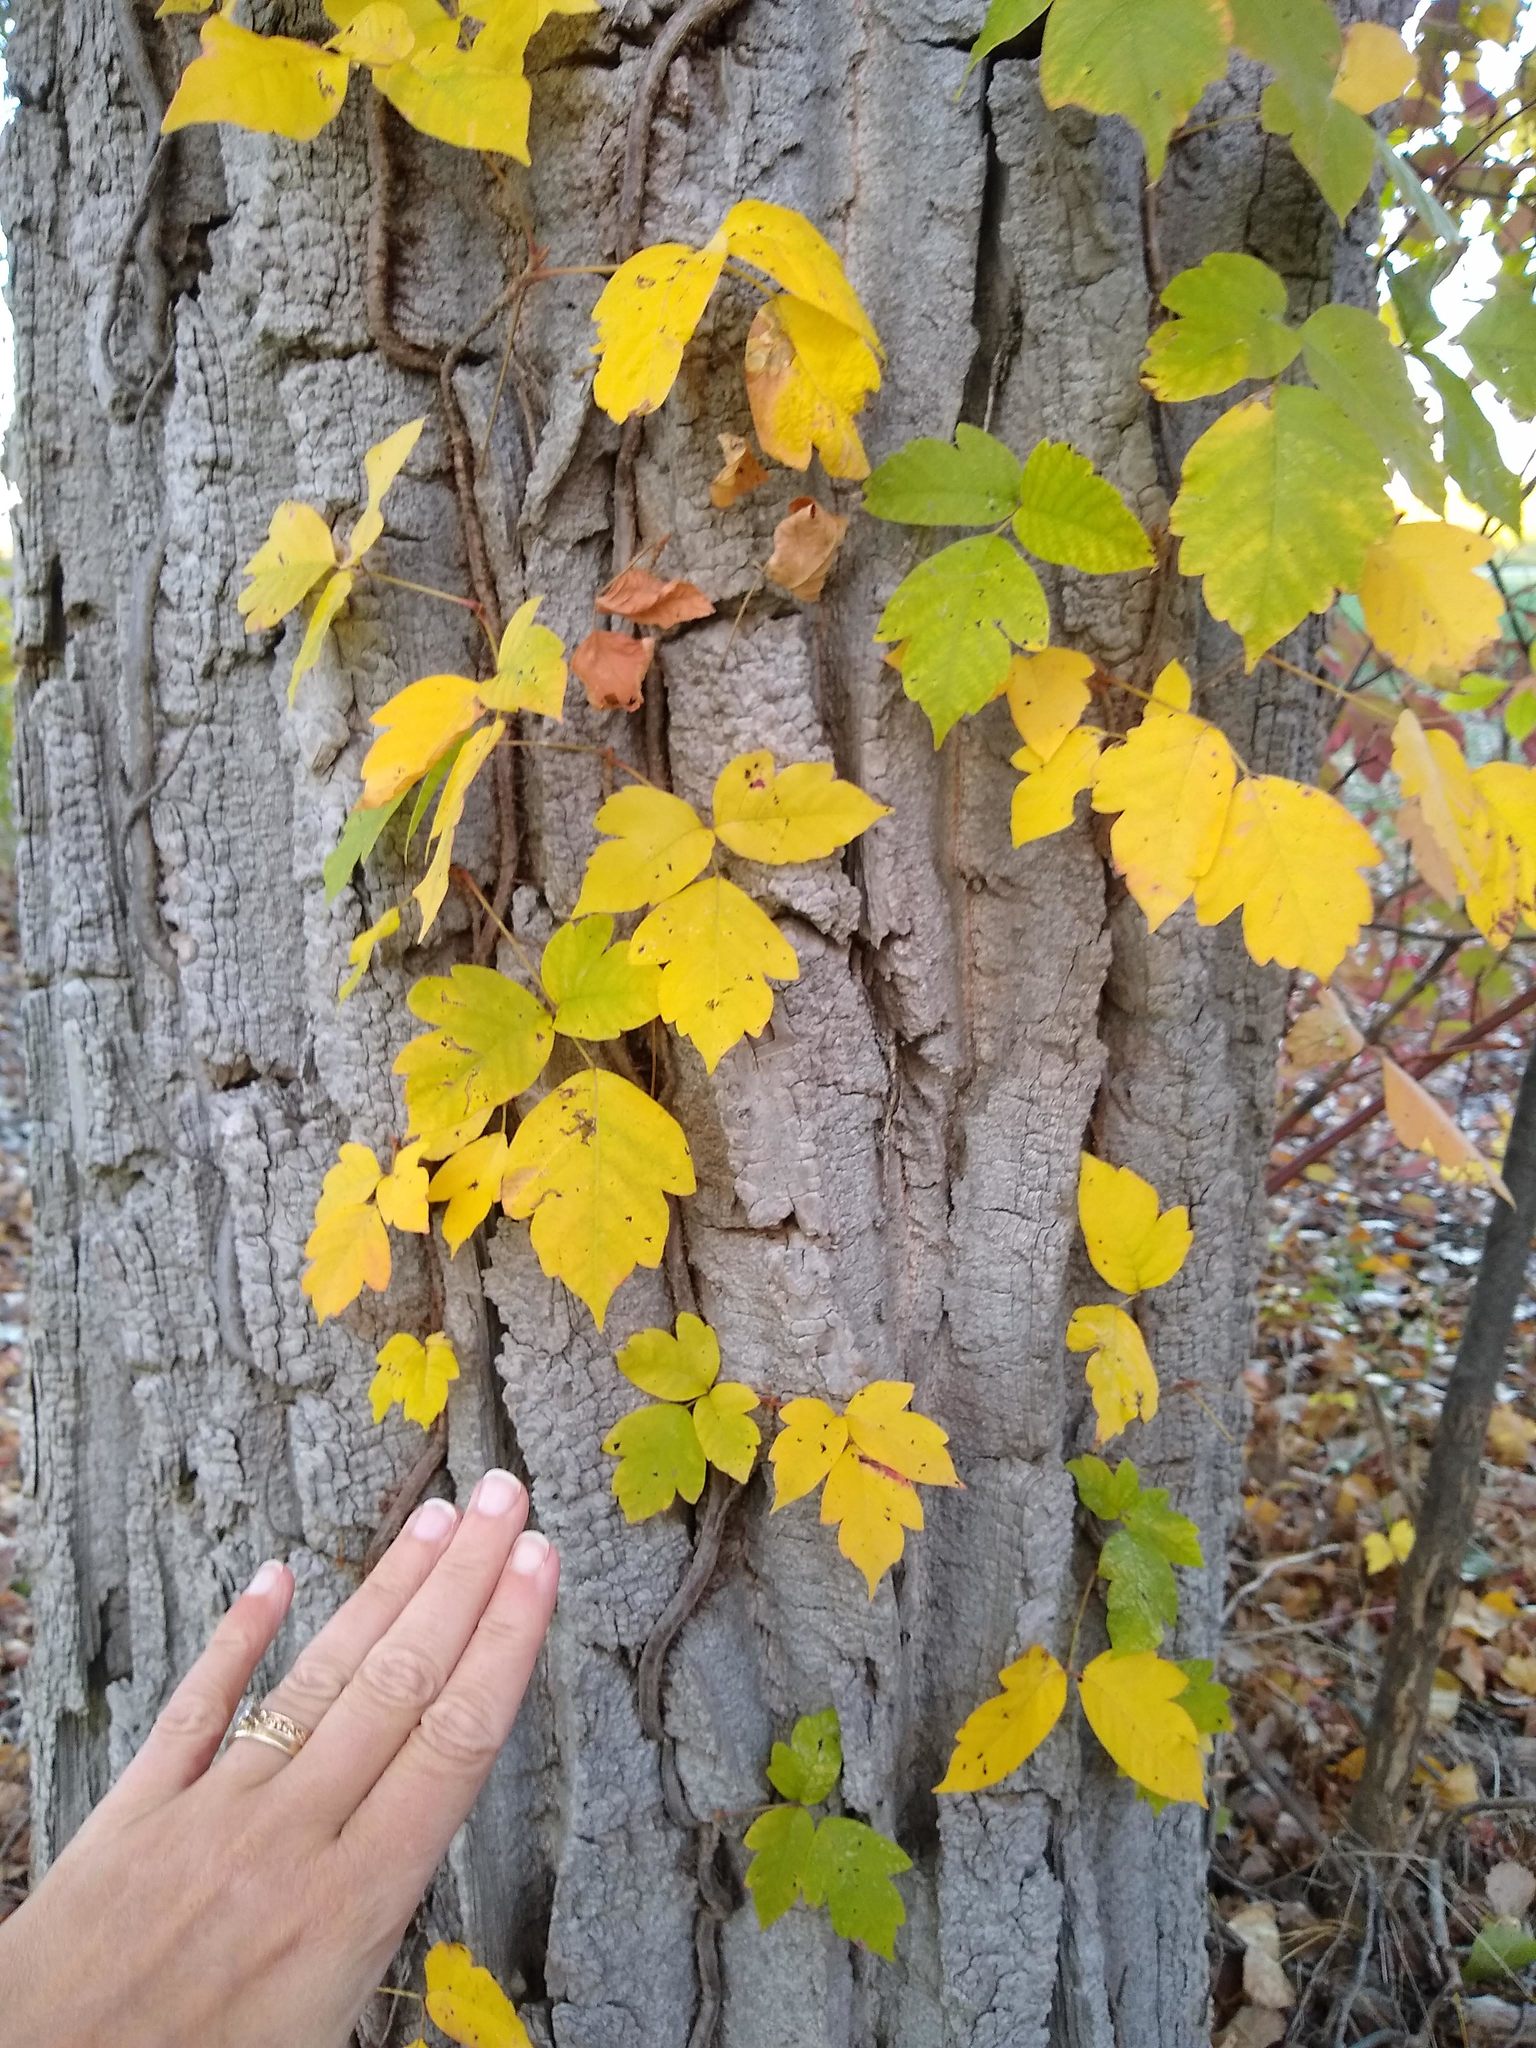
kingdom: Plantae
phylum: Tracheophyta
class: Magnoliopsida
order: Sapindales
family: Anacardiaceae
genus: Toxicodendron
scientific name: Toxicodendron radicans
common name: Poison ivy
